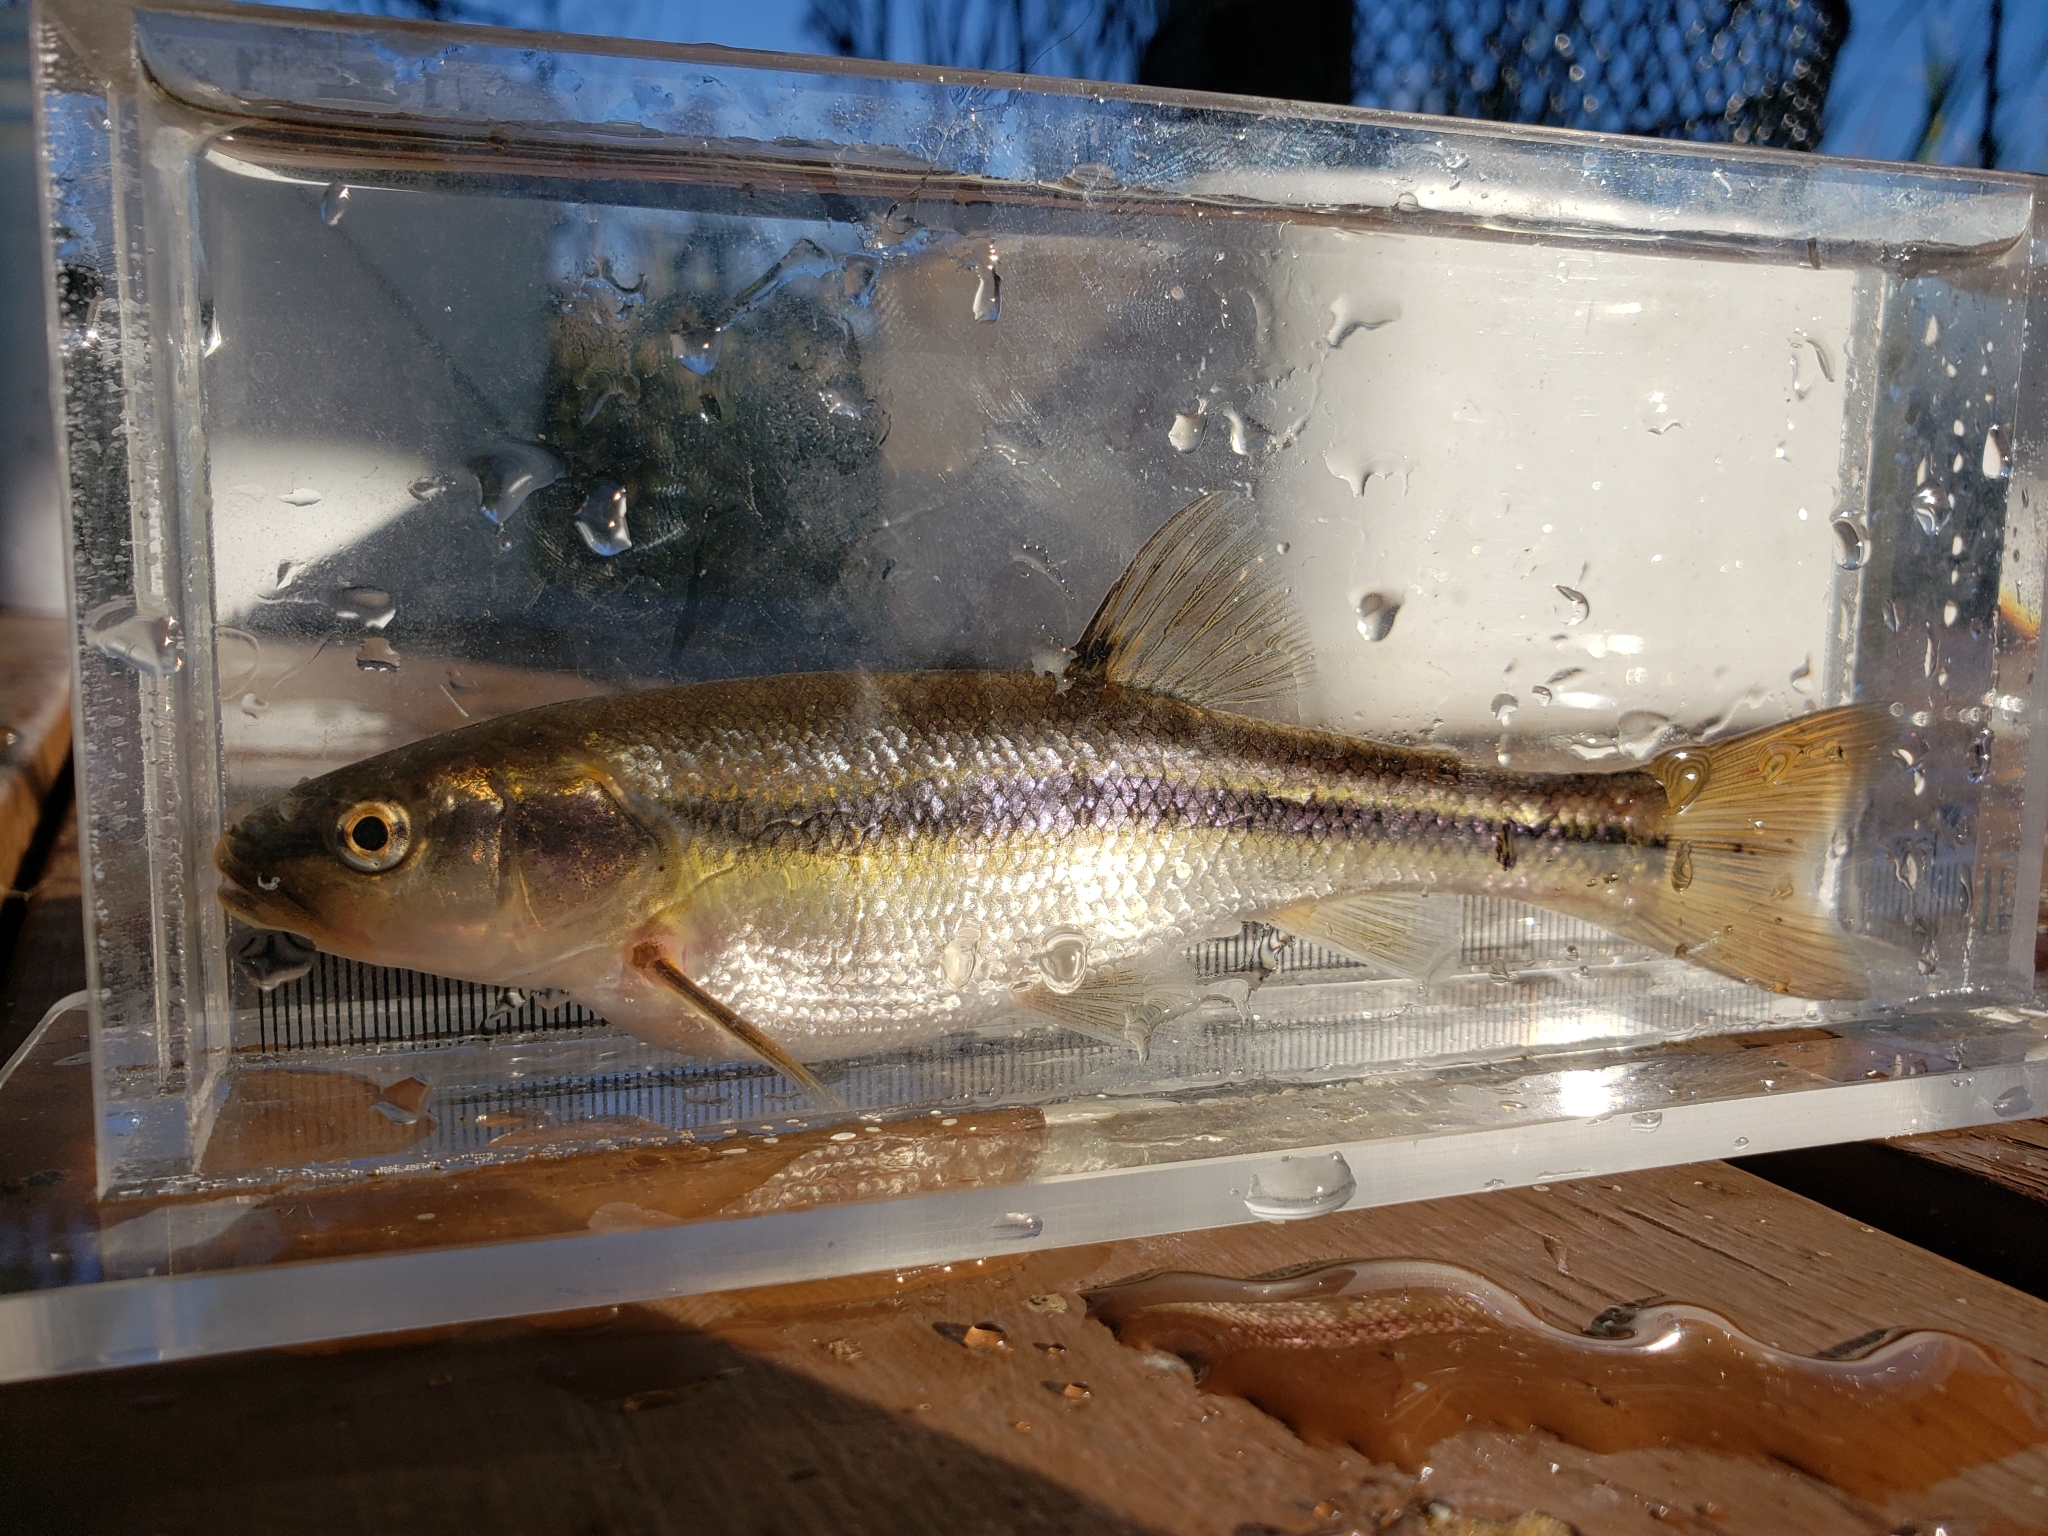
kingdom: Animalia
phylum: Chordata
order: Cypriniformes
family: Cyprinidae
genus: Semotilus
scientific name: Semotilus atromaculatus
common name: Creek chub
